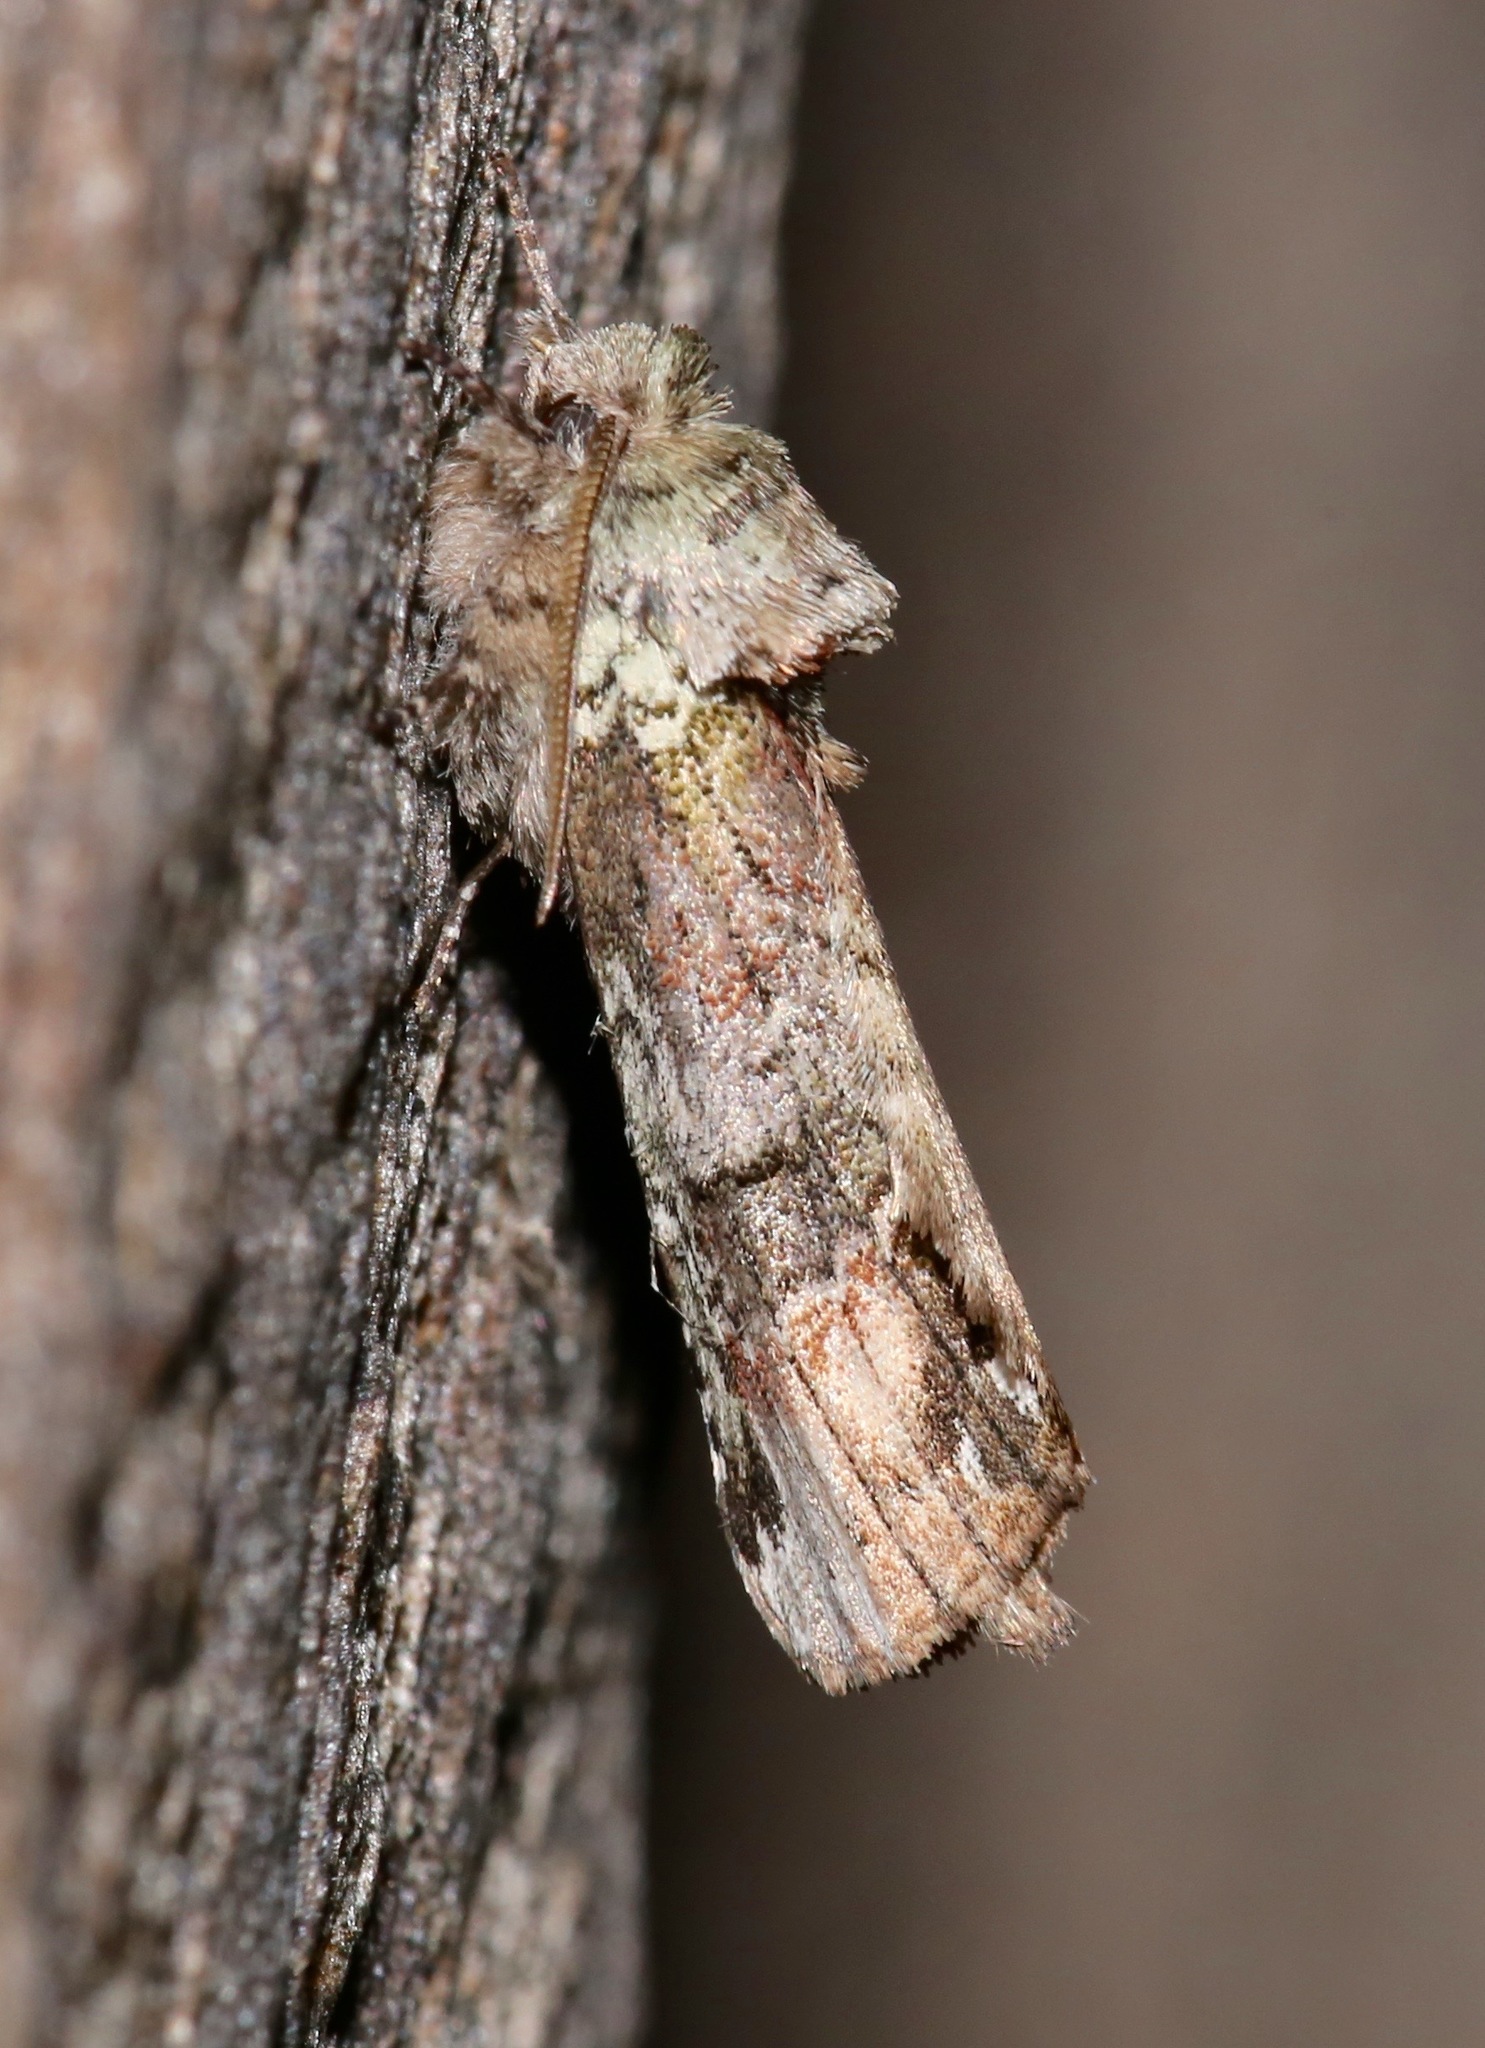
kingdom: Animalia
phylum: Arthropoda
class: Insecta
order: Lepidoptera
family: Notodontidae
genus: Schizura
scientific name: Schizura
